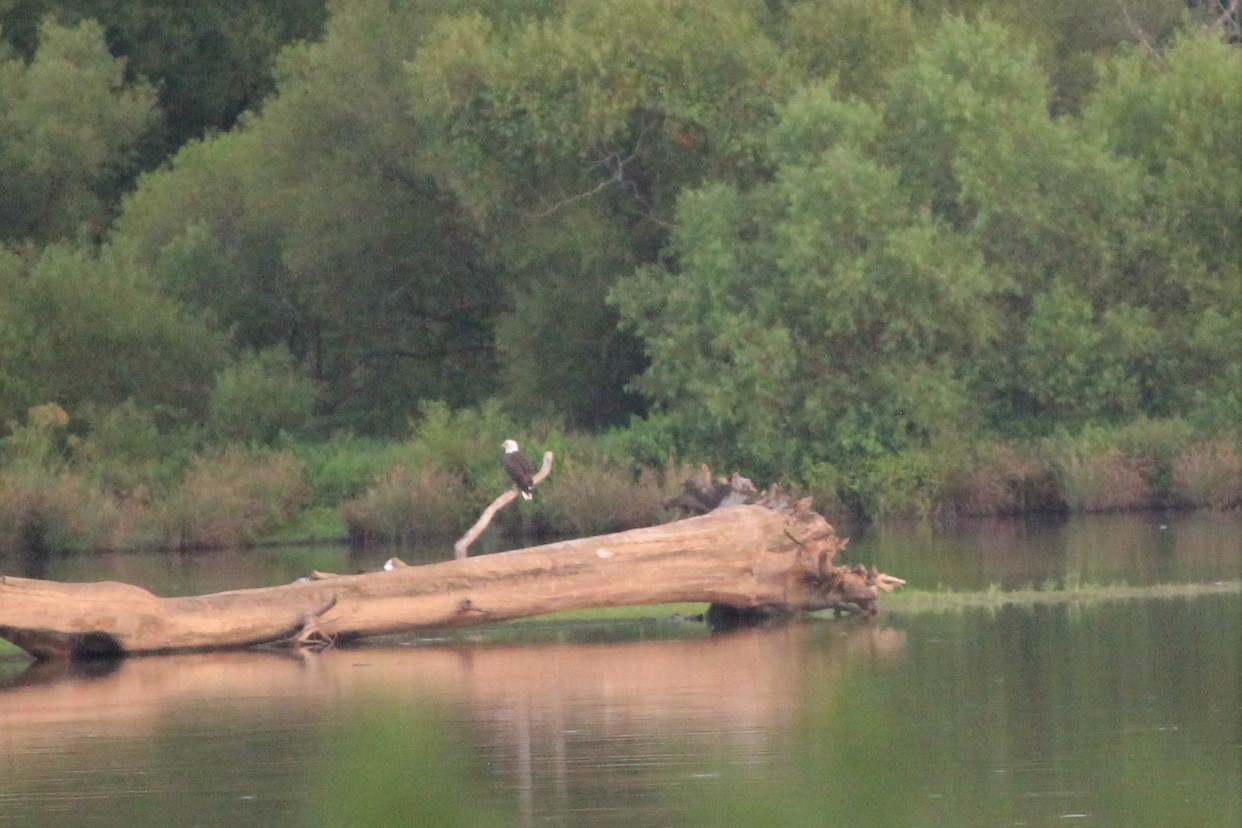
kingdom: Animalia
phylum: Chordata
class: Aves
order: Accipitriformes
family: Accipitridae
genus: Haliaeetus
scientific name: Haliaeetus leucocephalus
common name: Bald eagle
